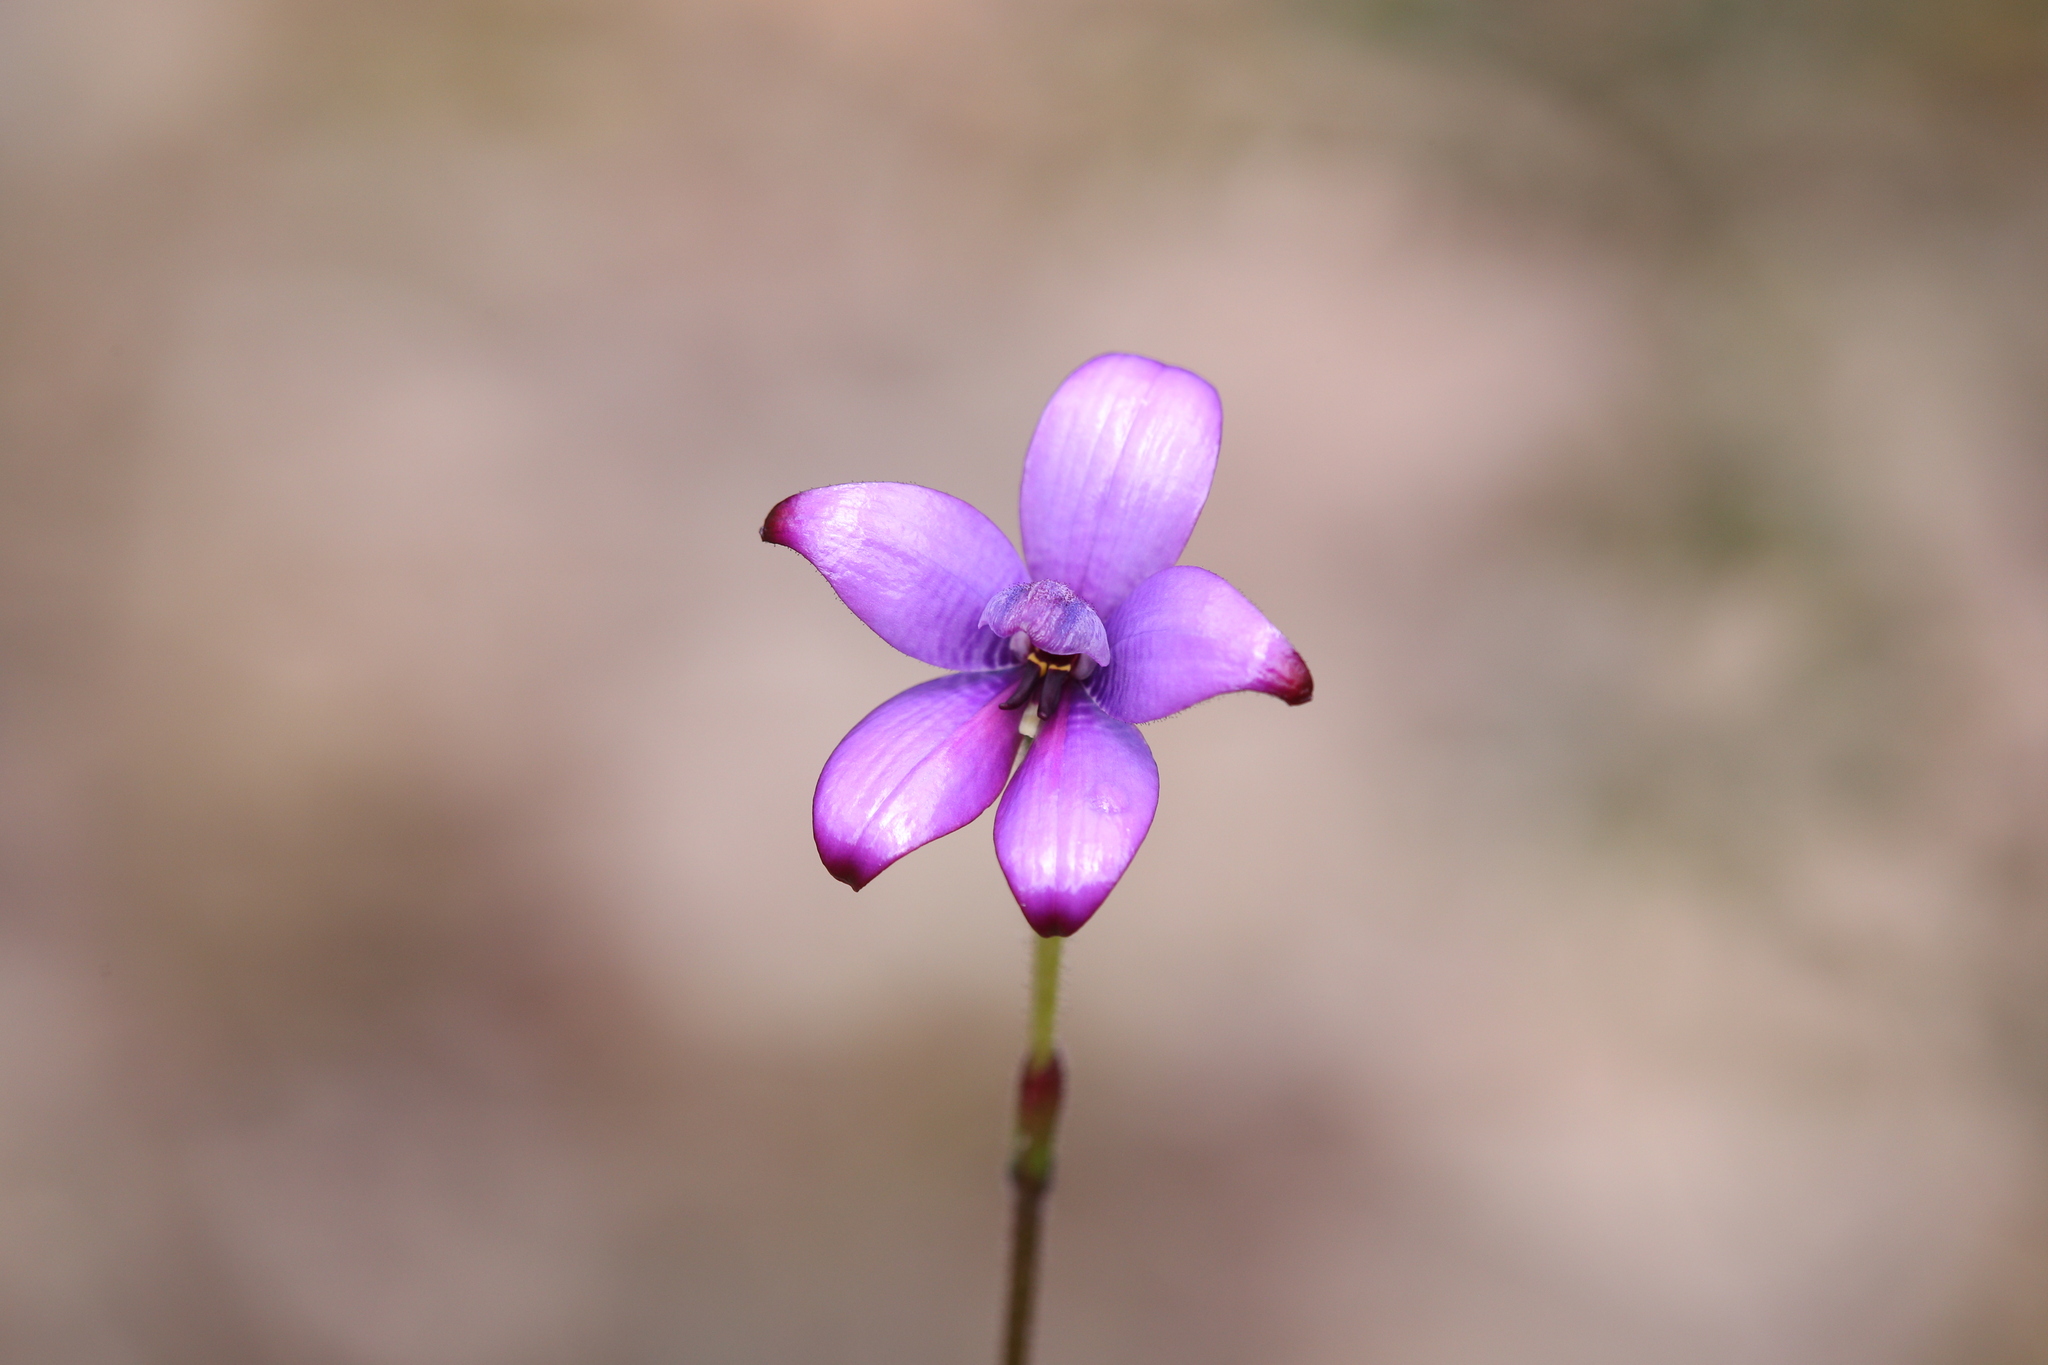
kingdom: Plantae
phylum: Tracheophyta
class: Liliopsida
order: Asparagales
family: Orchidaceae
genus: Caladenia
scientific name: Caladenia brunonis
